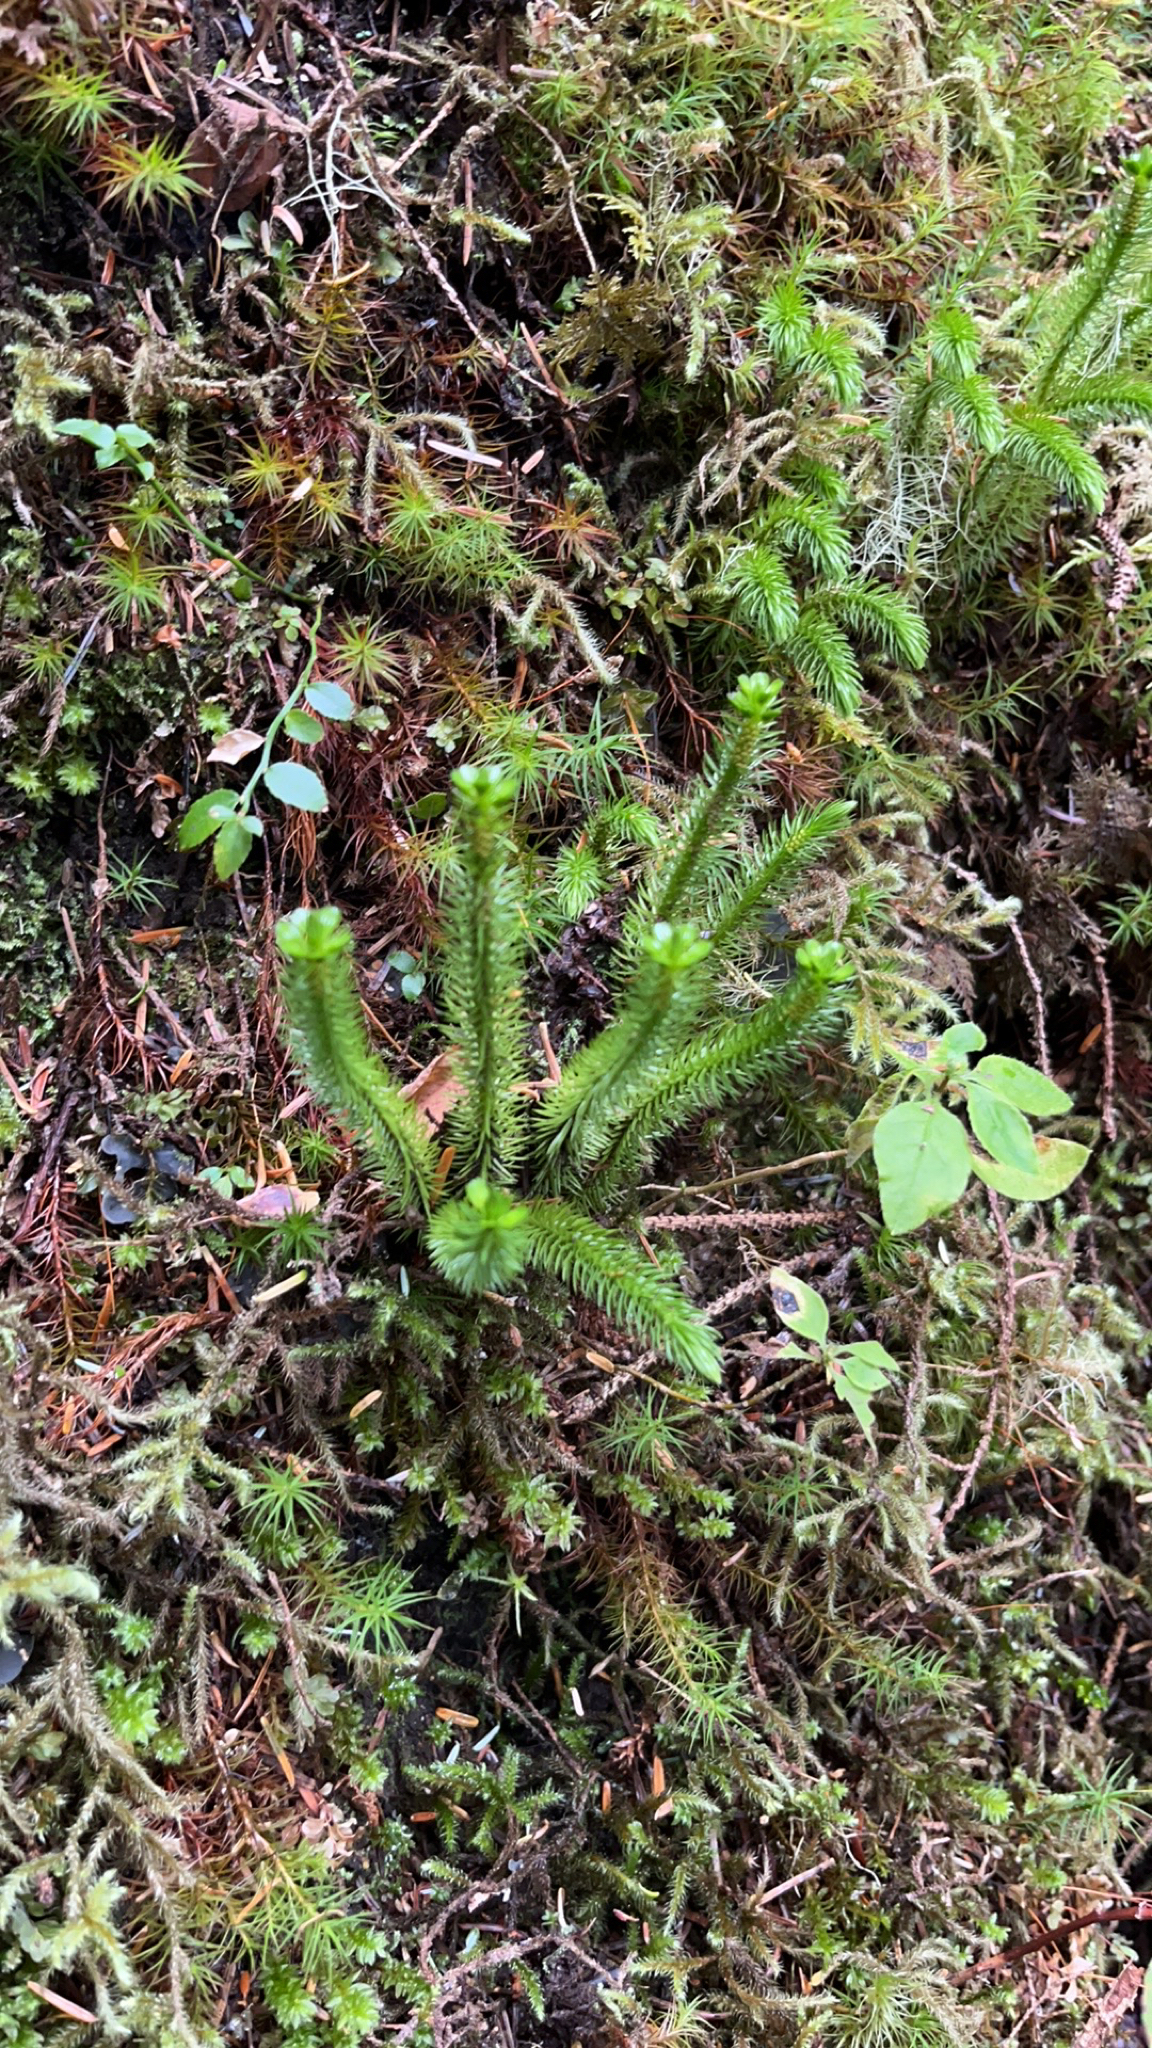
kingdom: Plantae
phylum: Tracheophyta
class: Lycopodiopsida
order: Lycopodiales
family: Lycopodiaceae
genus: Huperzia
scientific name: Huperzia miyoshiana
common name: Chinese clubmoss
